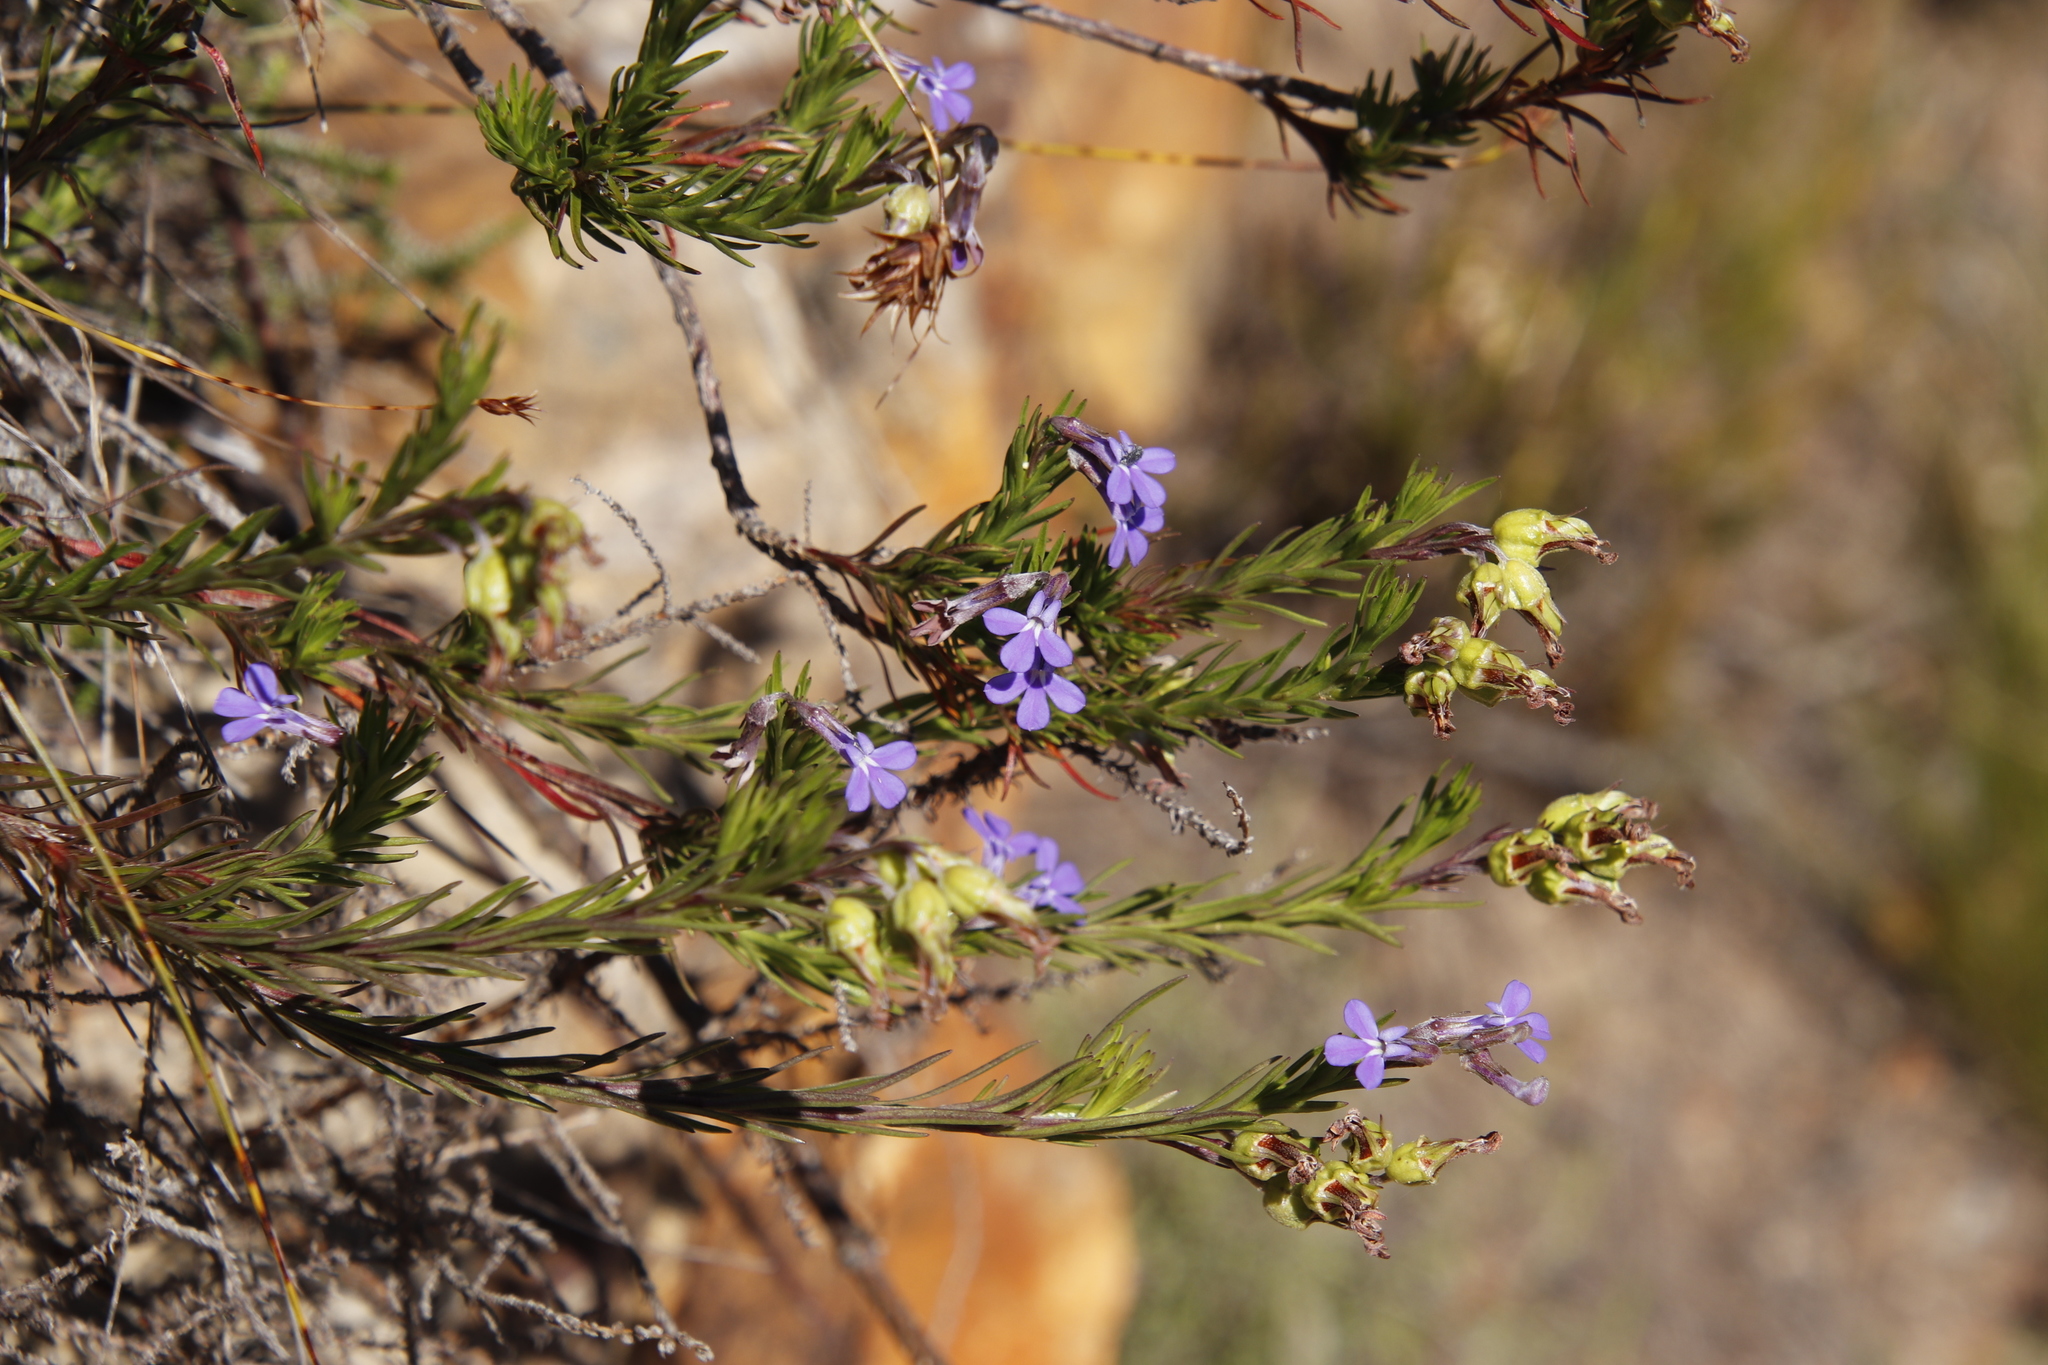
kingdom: Plantae
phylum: Tracheophyta
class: Magnoliopsida
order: Asterales
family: Campanulaceae
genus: Lobelia
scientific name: Lobelia pinifolia
